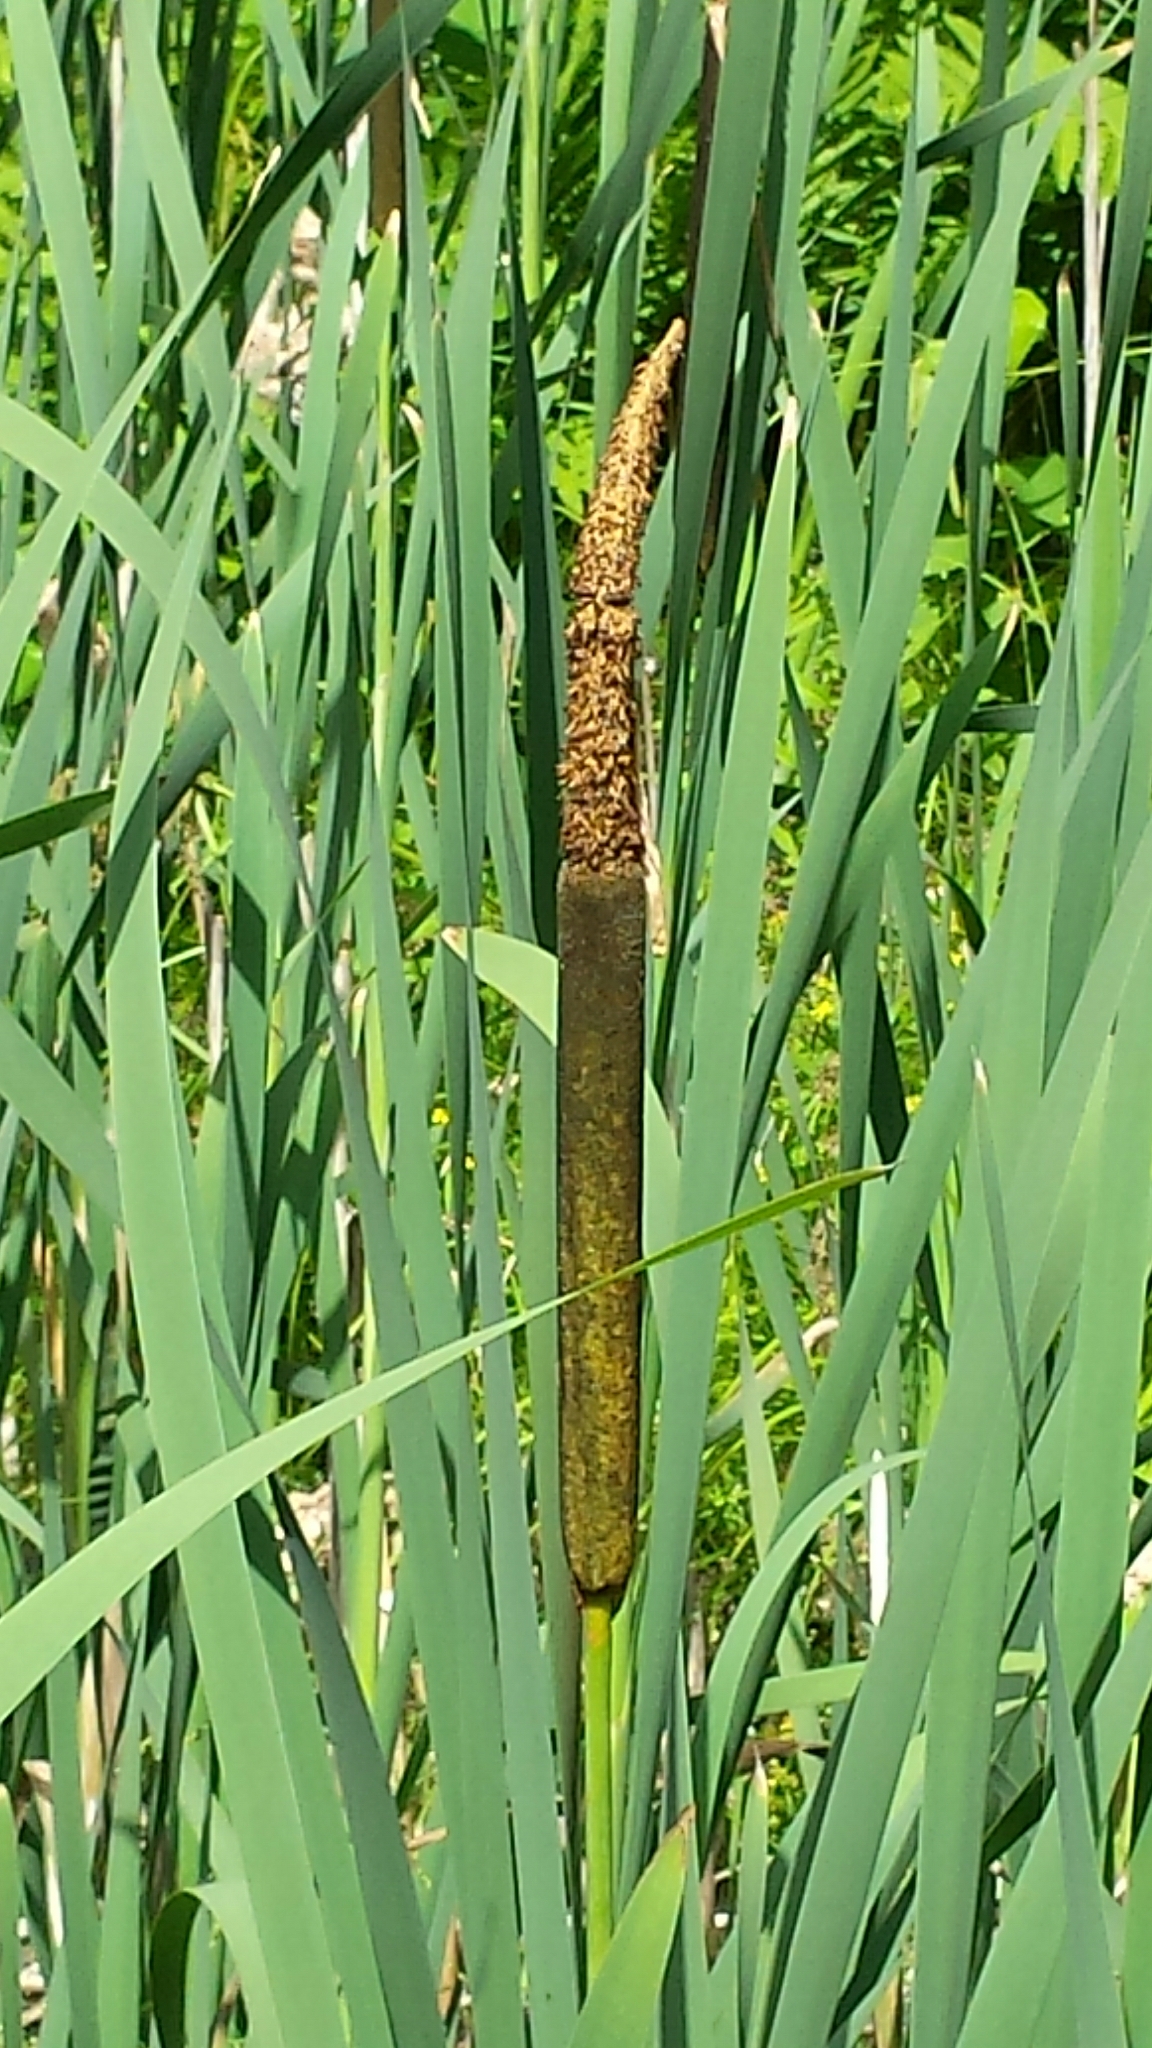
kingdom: Plantae
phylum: Tracheophyta
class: Liliopsida
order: Poales
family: Typhaceae
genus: Typha
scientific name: Typha latifolia
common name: Broadleaf cattail
